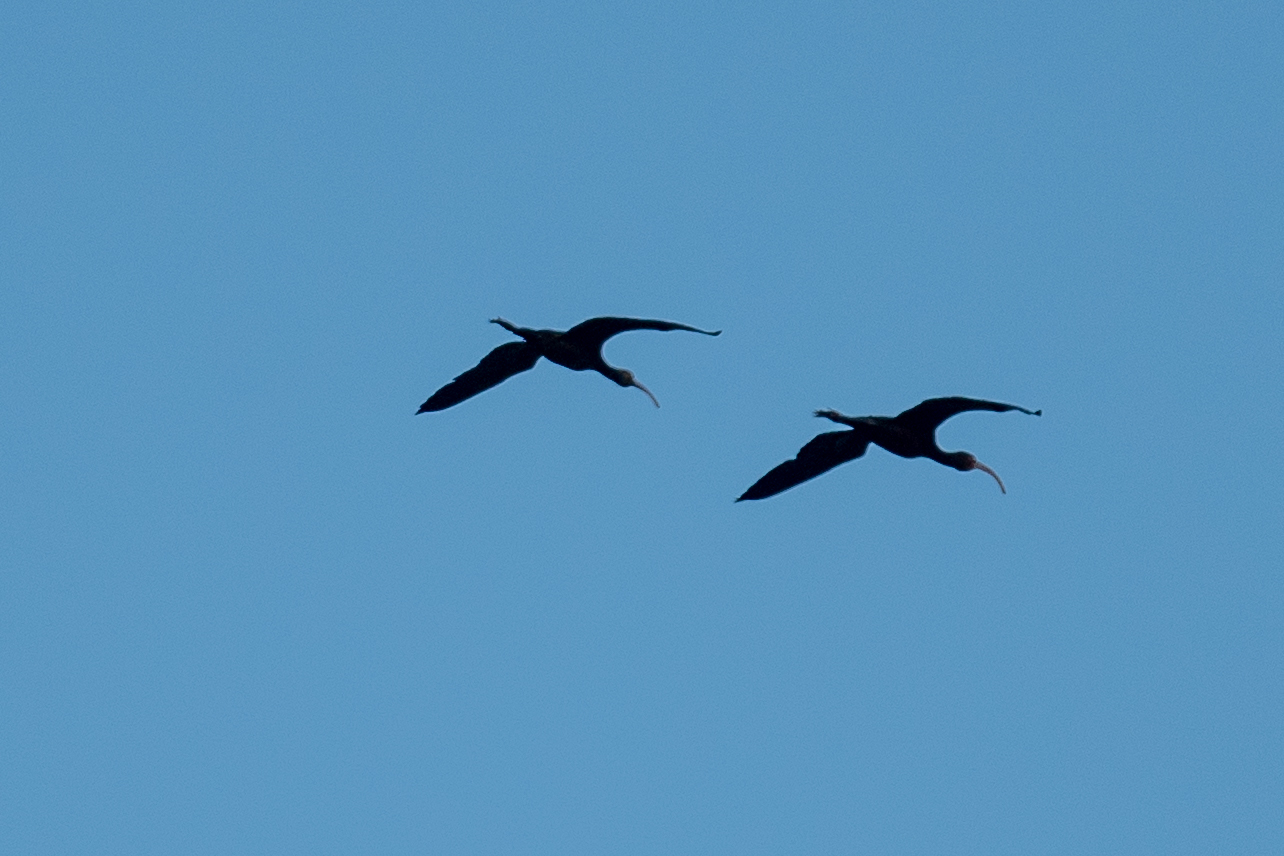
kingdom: Animalia
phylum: Chordata
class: Aves
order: Pelecaniformes
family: Threskiornithidae
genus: Plegadis
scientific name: Plegadis chihi
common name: White-faced ibis
